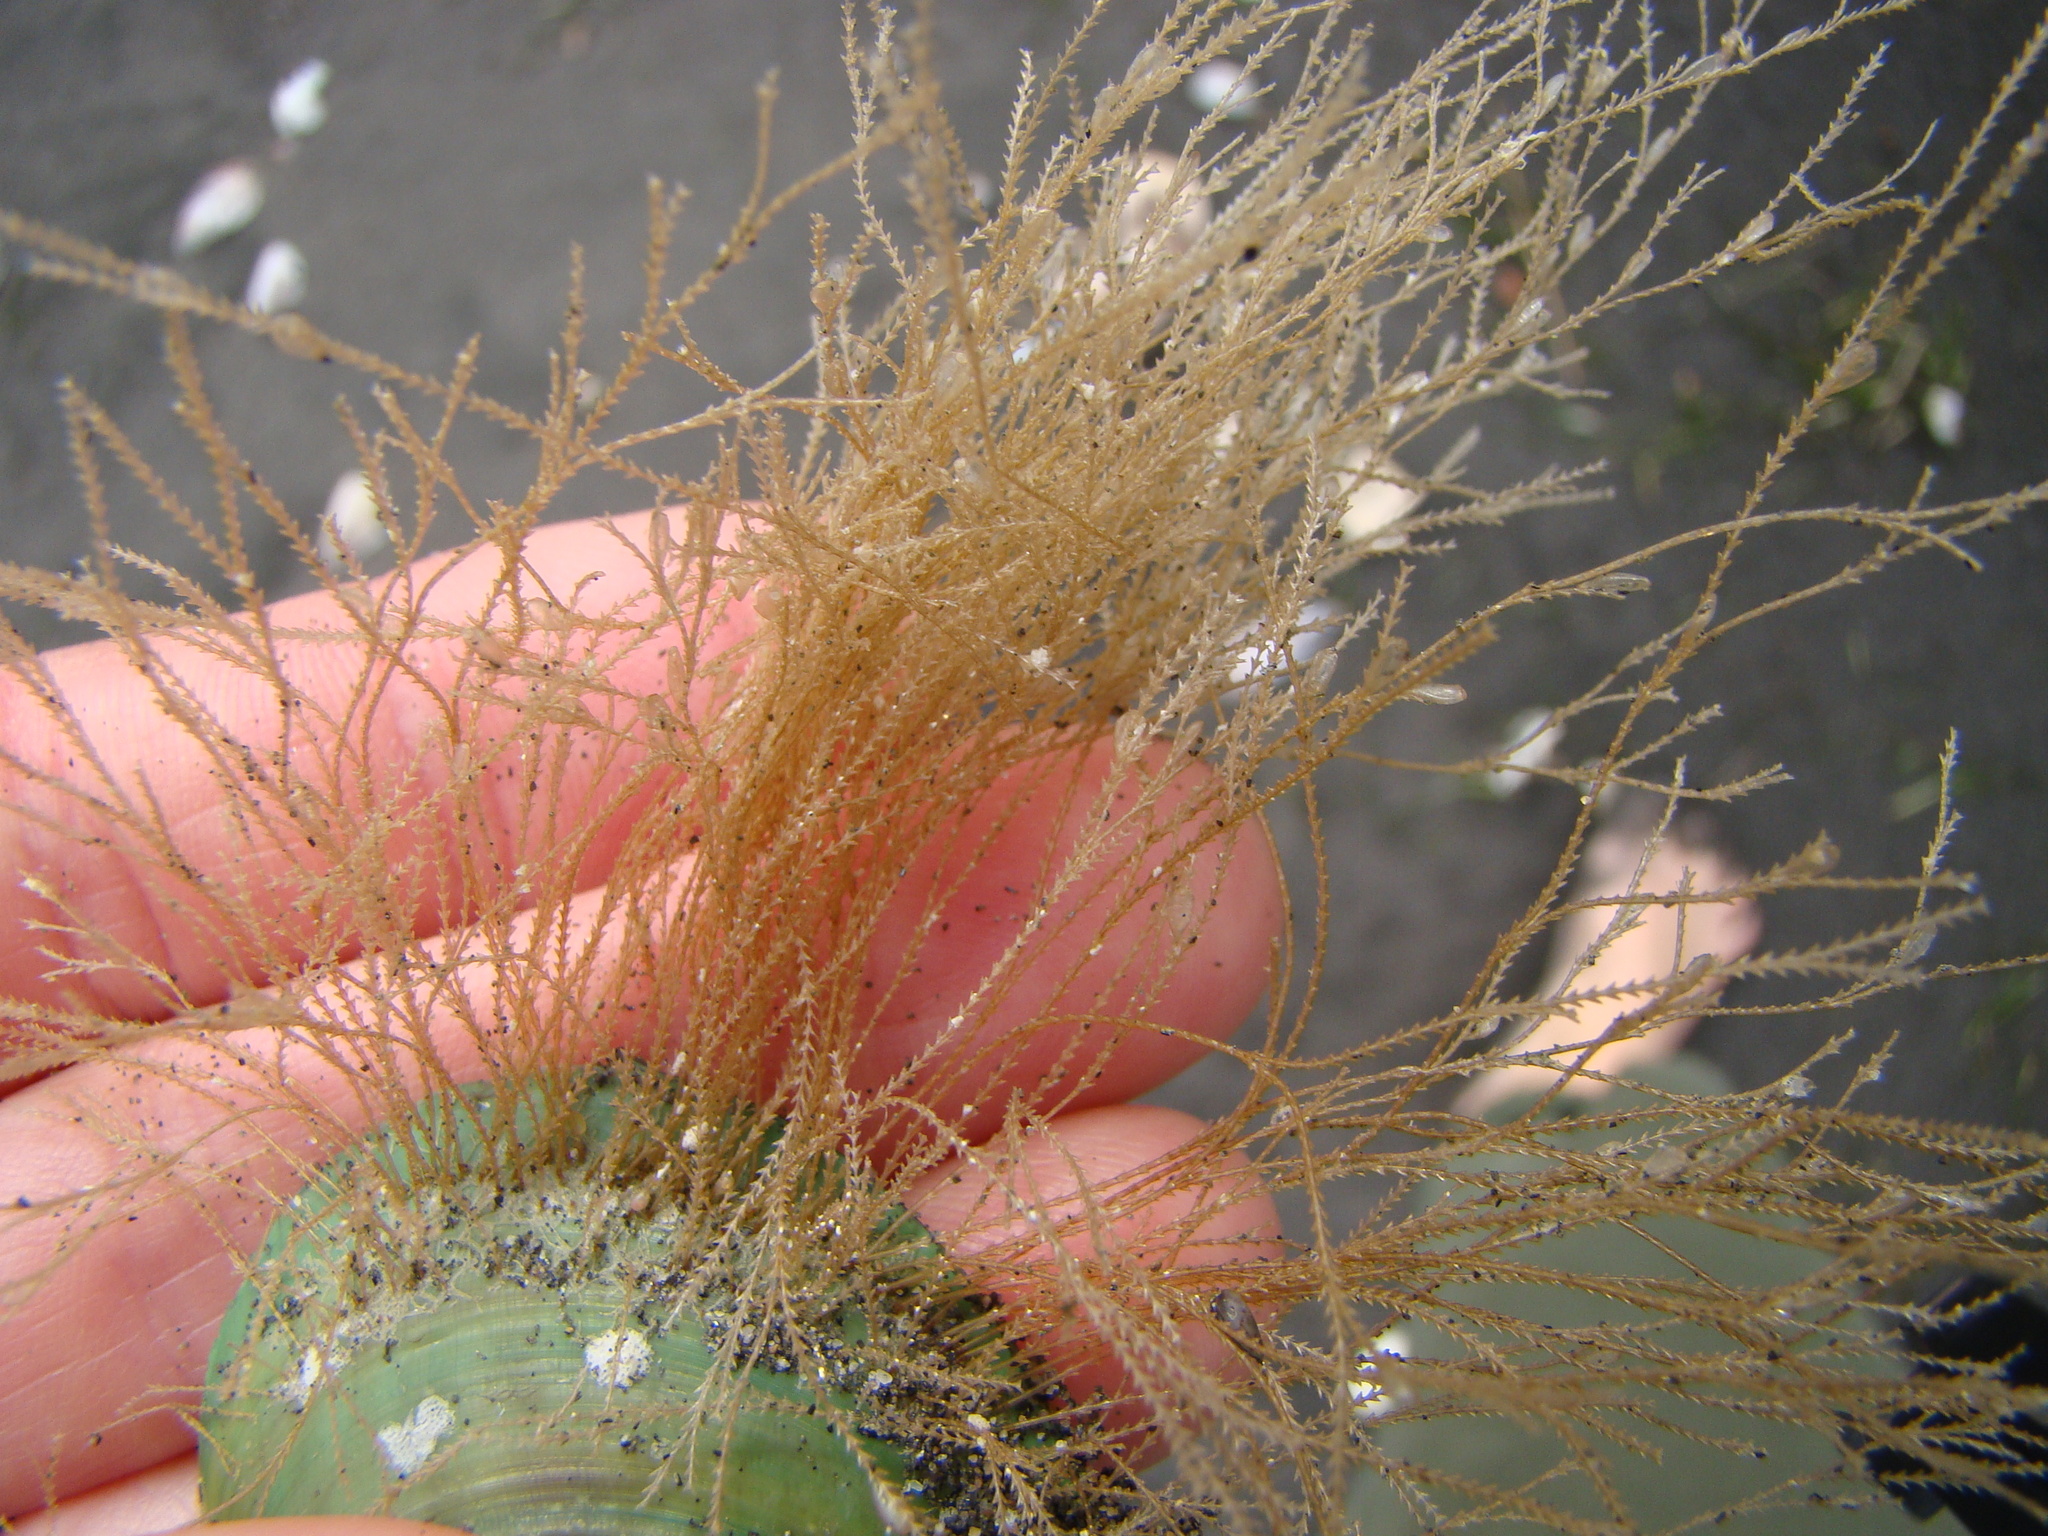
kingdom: Animalia
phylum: Cnidaria
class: Hydrozoa
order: Leptothecata
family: Sertulariidae
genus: Amphisbetia
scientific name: Amphisbetia bispinosa
